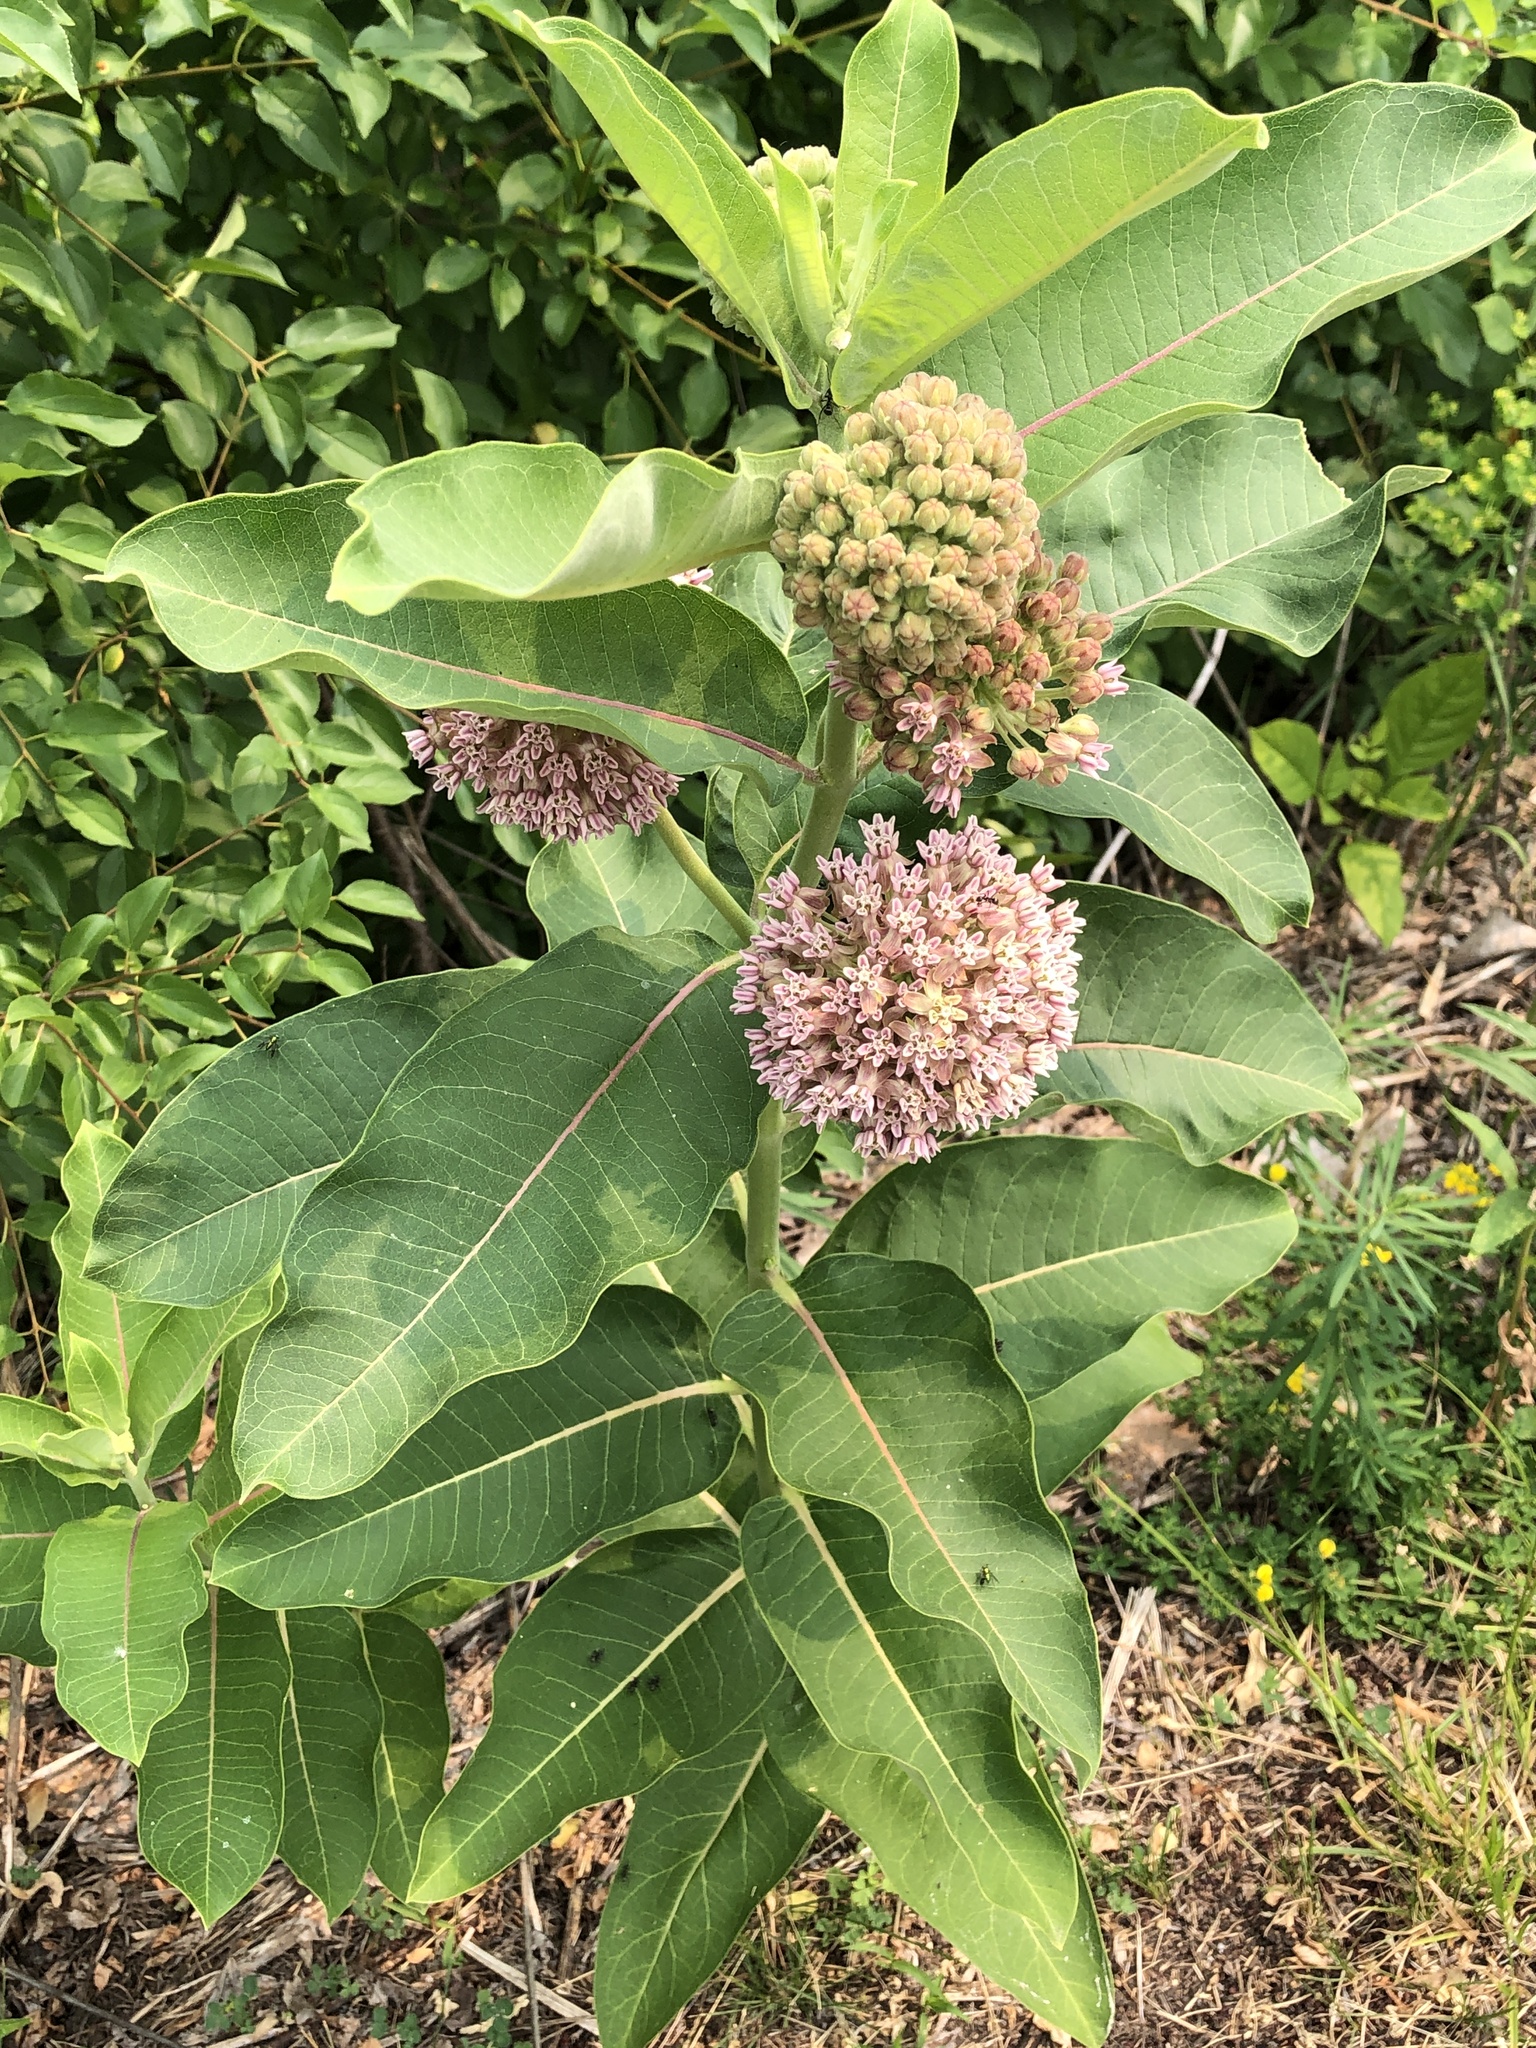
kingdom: Plantae
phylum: Tracheophyta
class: Magnoliopsida
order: Gentianales
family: Apocynaceae
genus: Asclepias
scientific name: Asclepias syriaca
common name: Common milkweed
